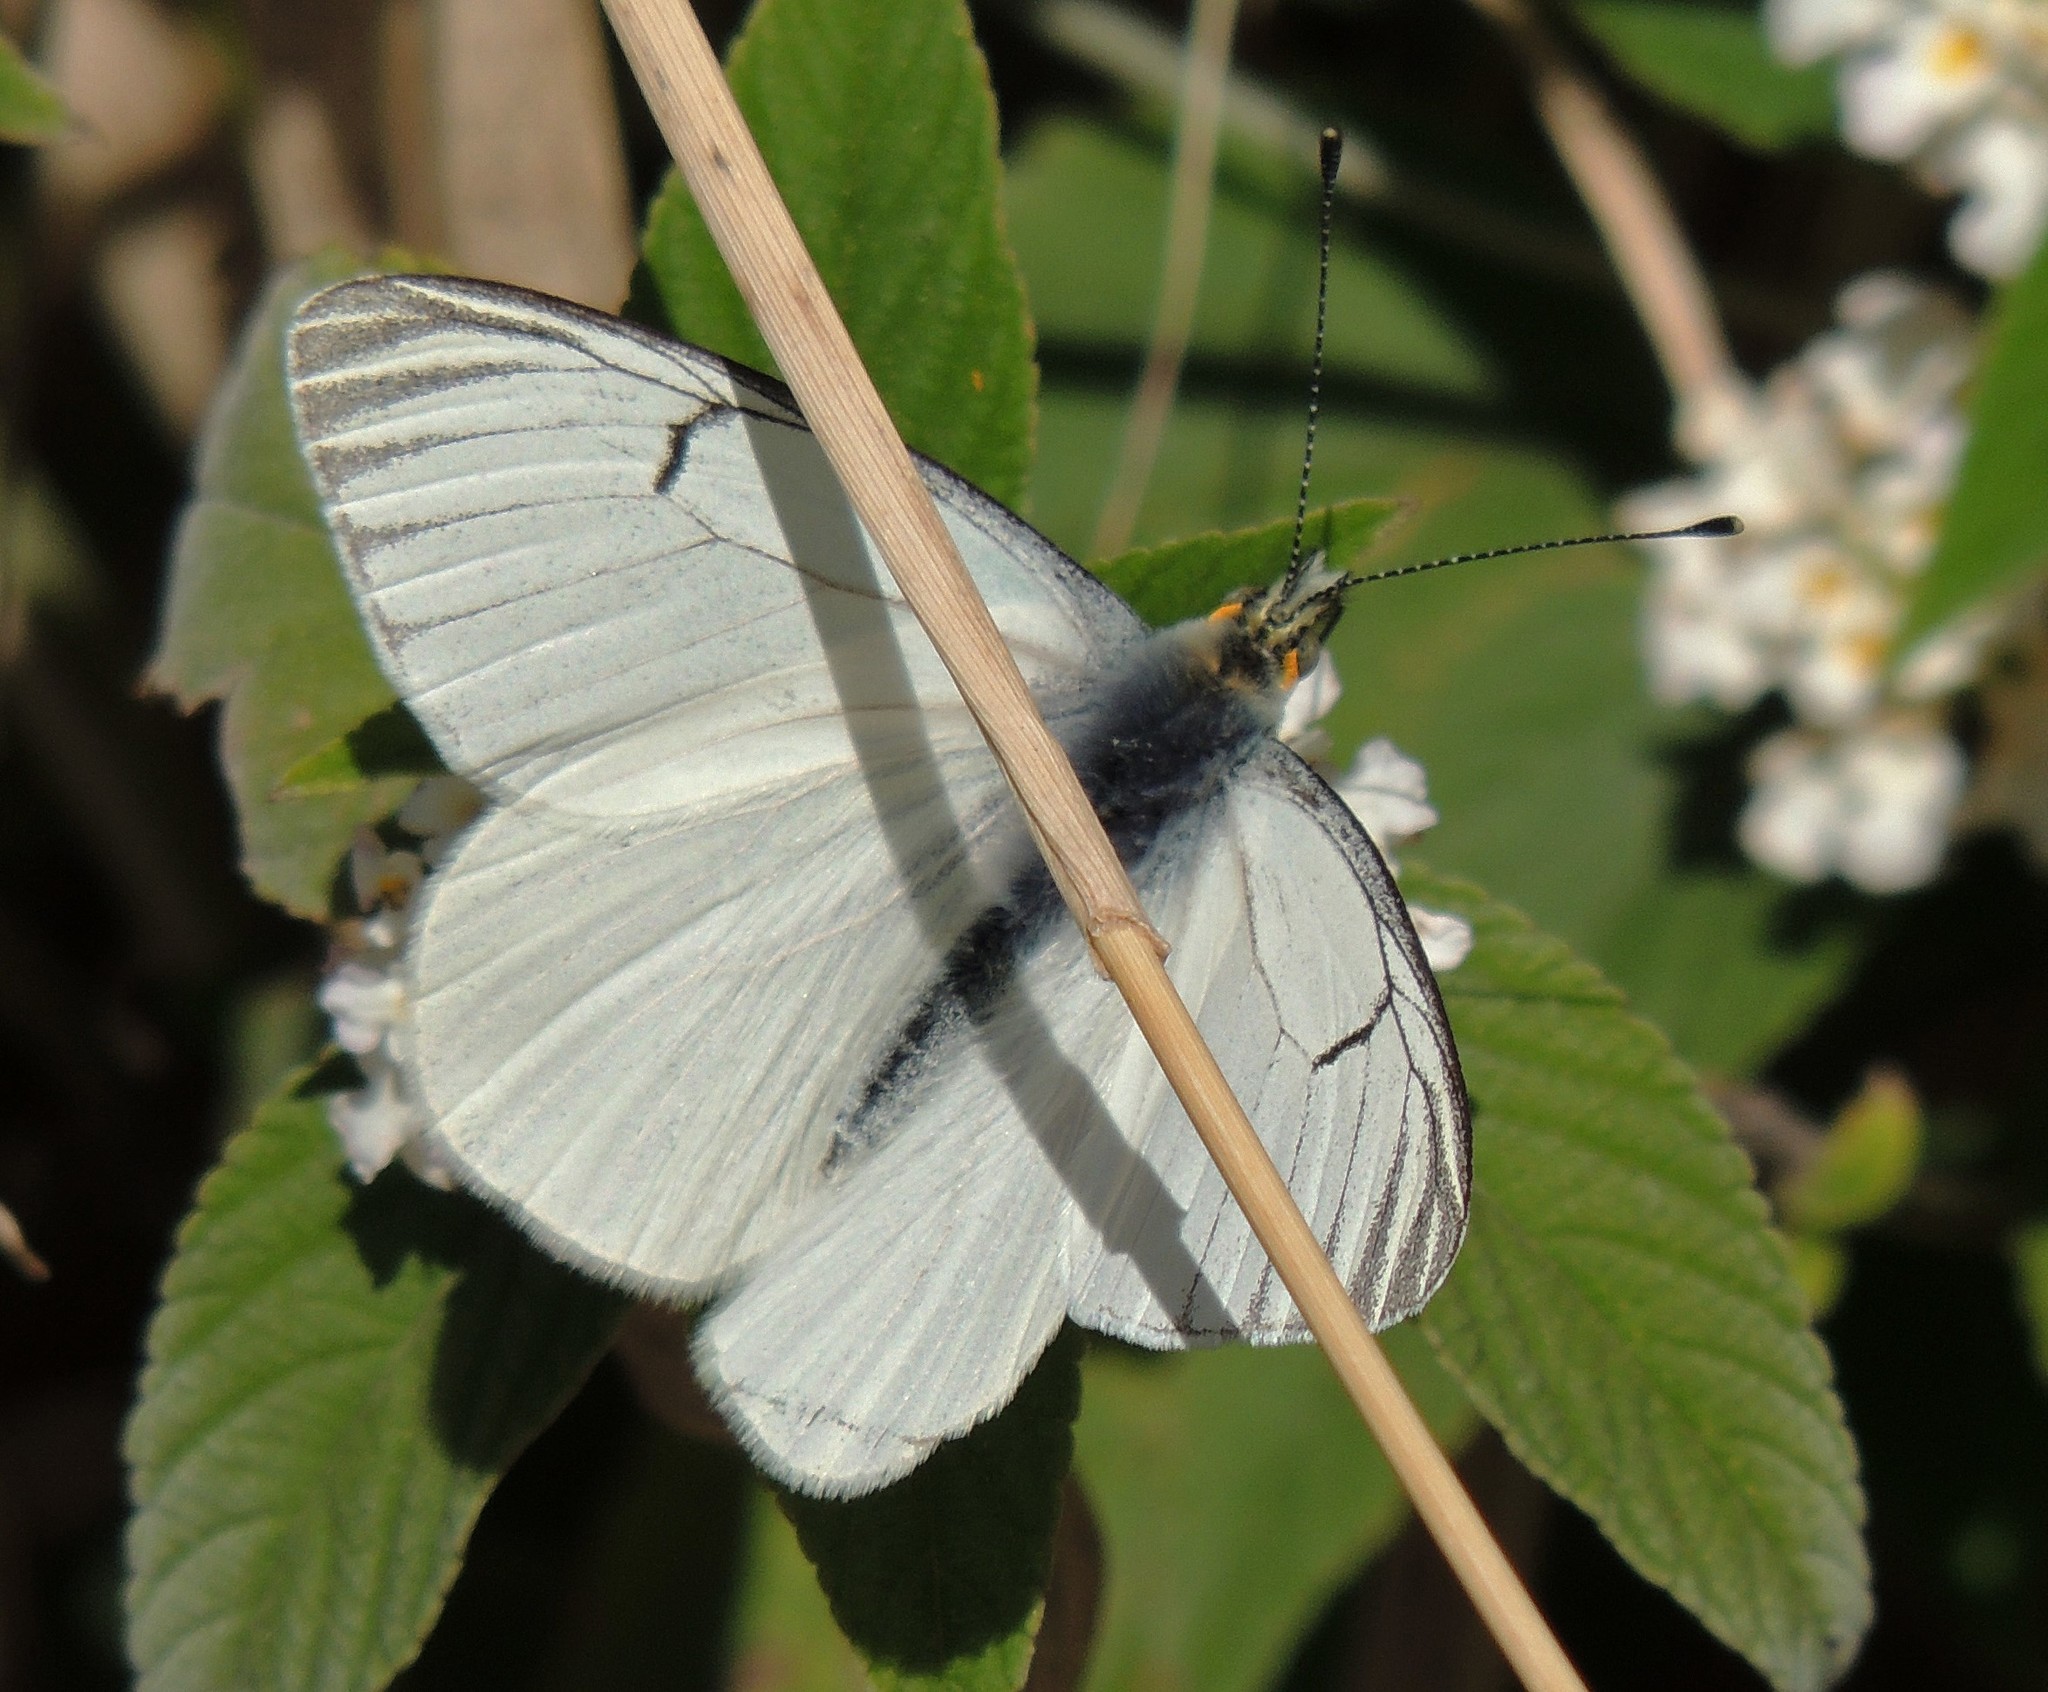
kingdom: Animalia
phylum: Arthropoda
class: Insecta
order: Lepidoptera
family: Pieridae
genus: Tatochila
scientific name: Tatochila orthodice
